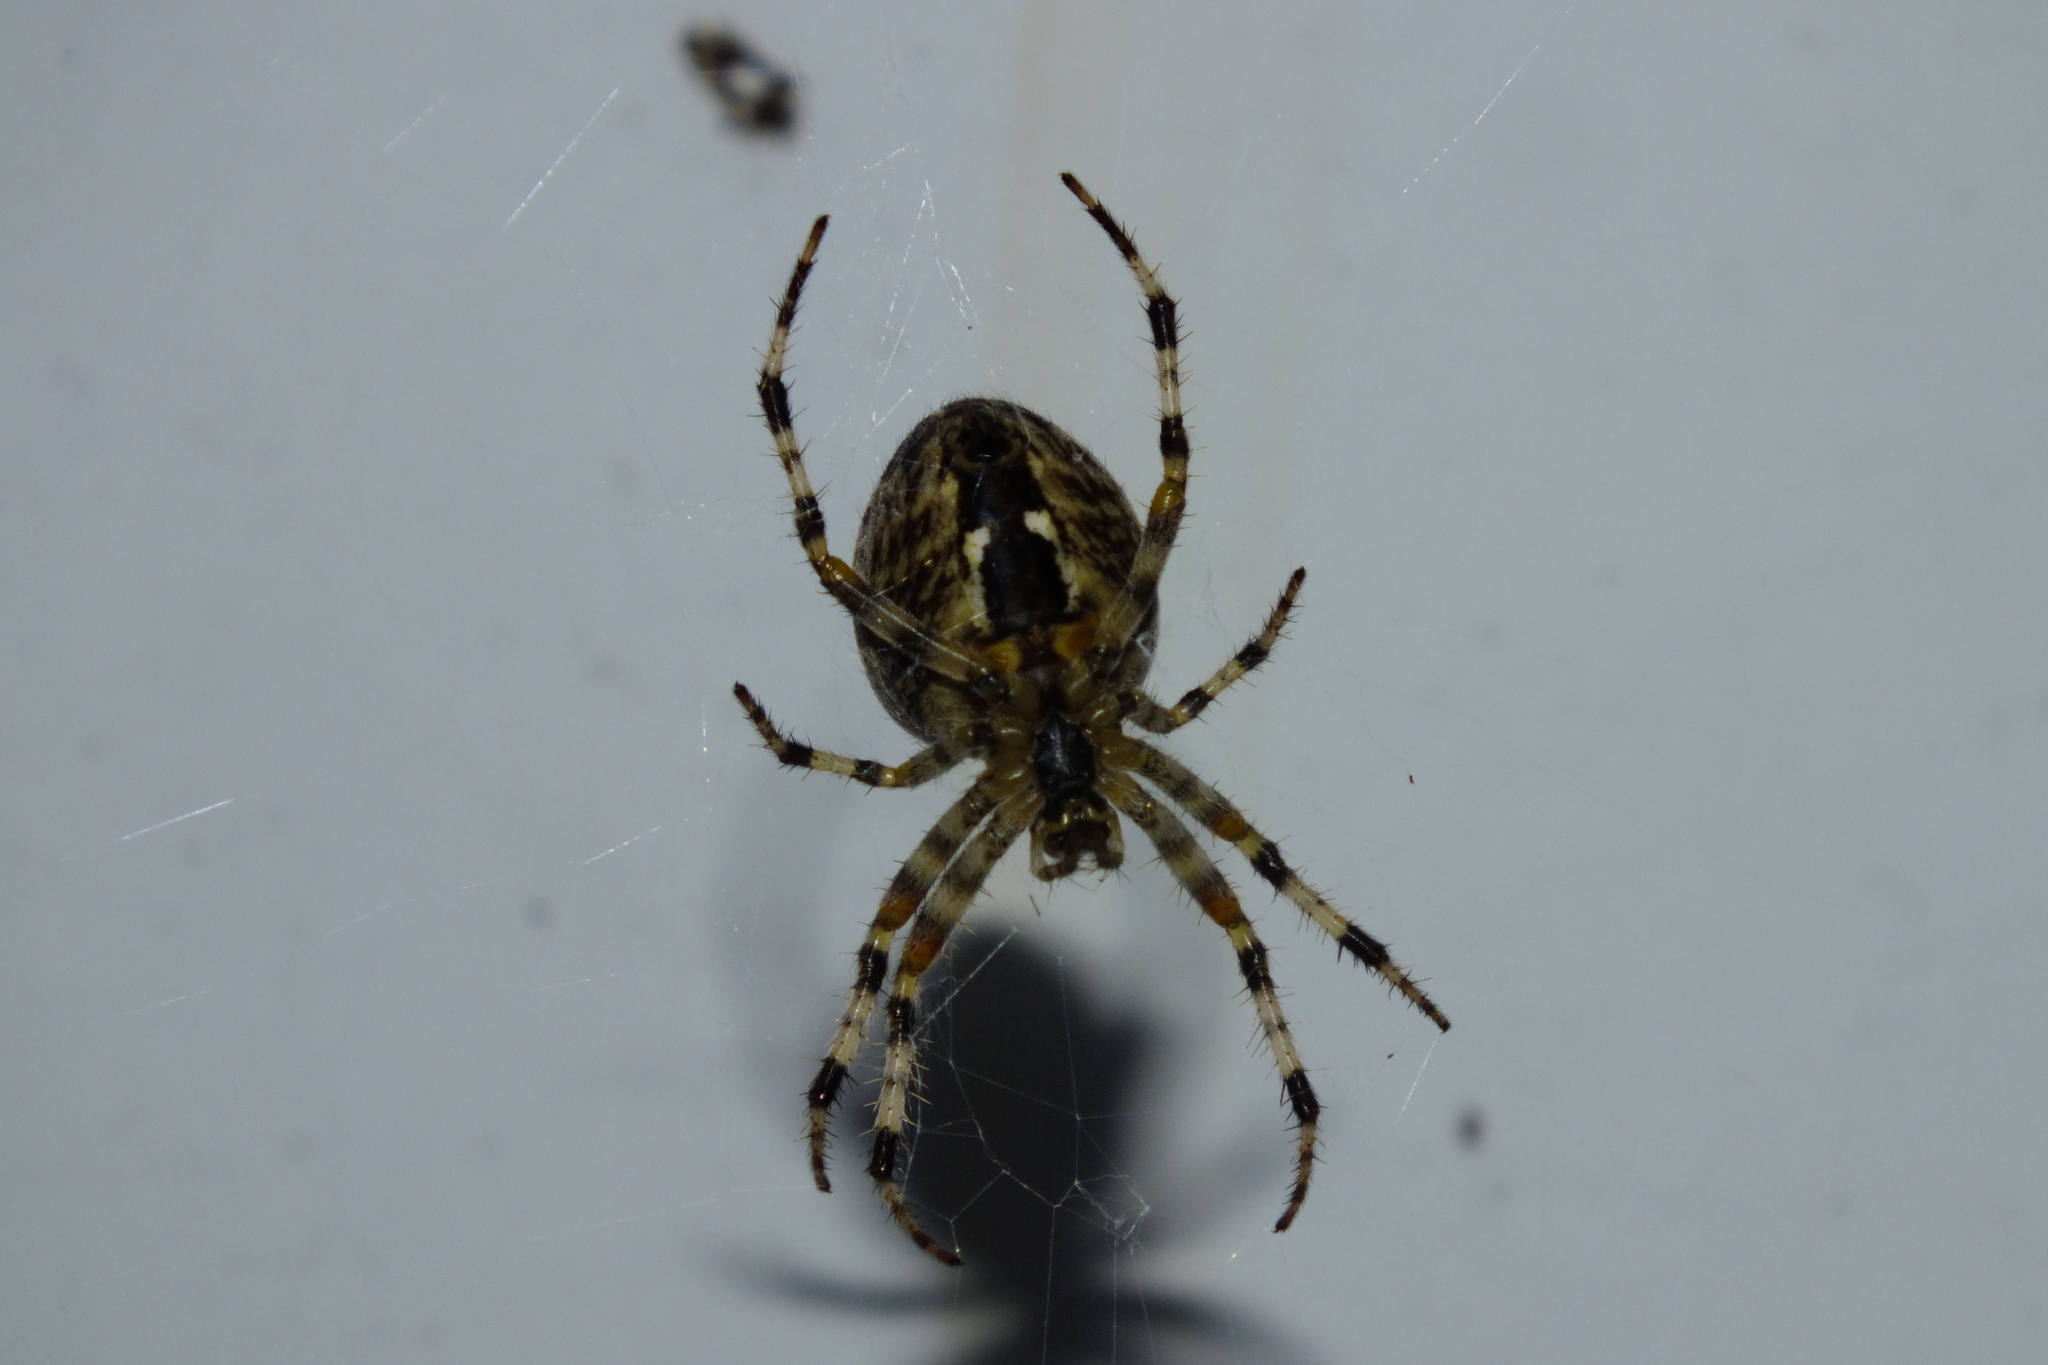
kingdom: Animalia
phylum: Arthropoda
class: Arachnida
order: Araneae
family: Araneidae
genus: Araneus
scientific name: Araneus diadematus
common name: Cross orbweaver
